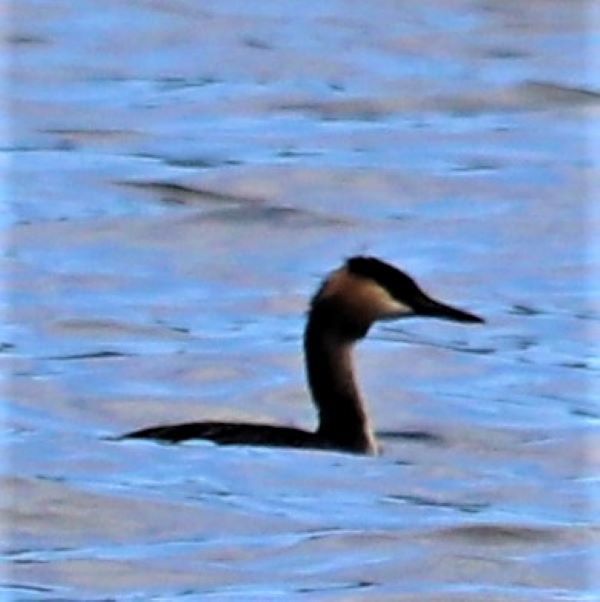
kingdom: Animalia
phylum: Chordata
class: Aves
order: Podicipediformes
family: Podicipedidae
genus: Podiceps
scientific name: Podiceps cristatus
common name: Great crested grebe
